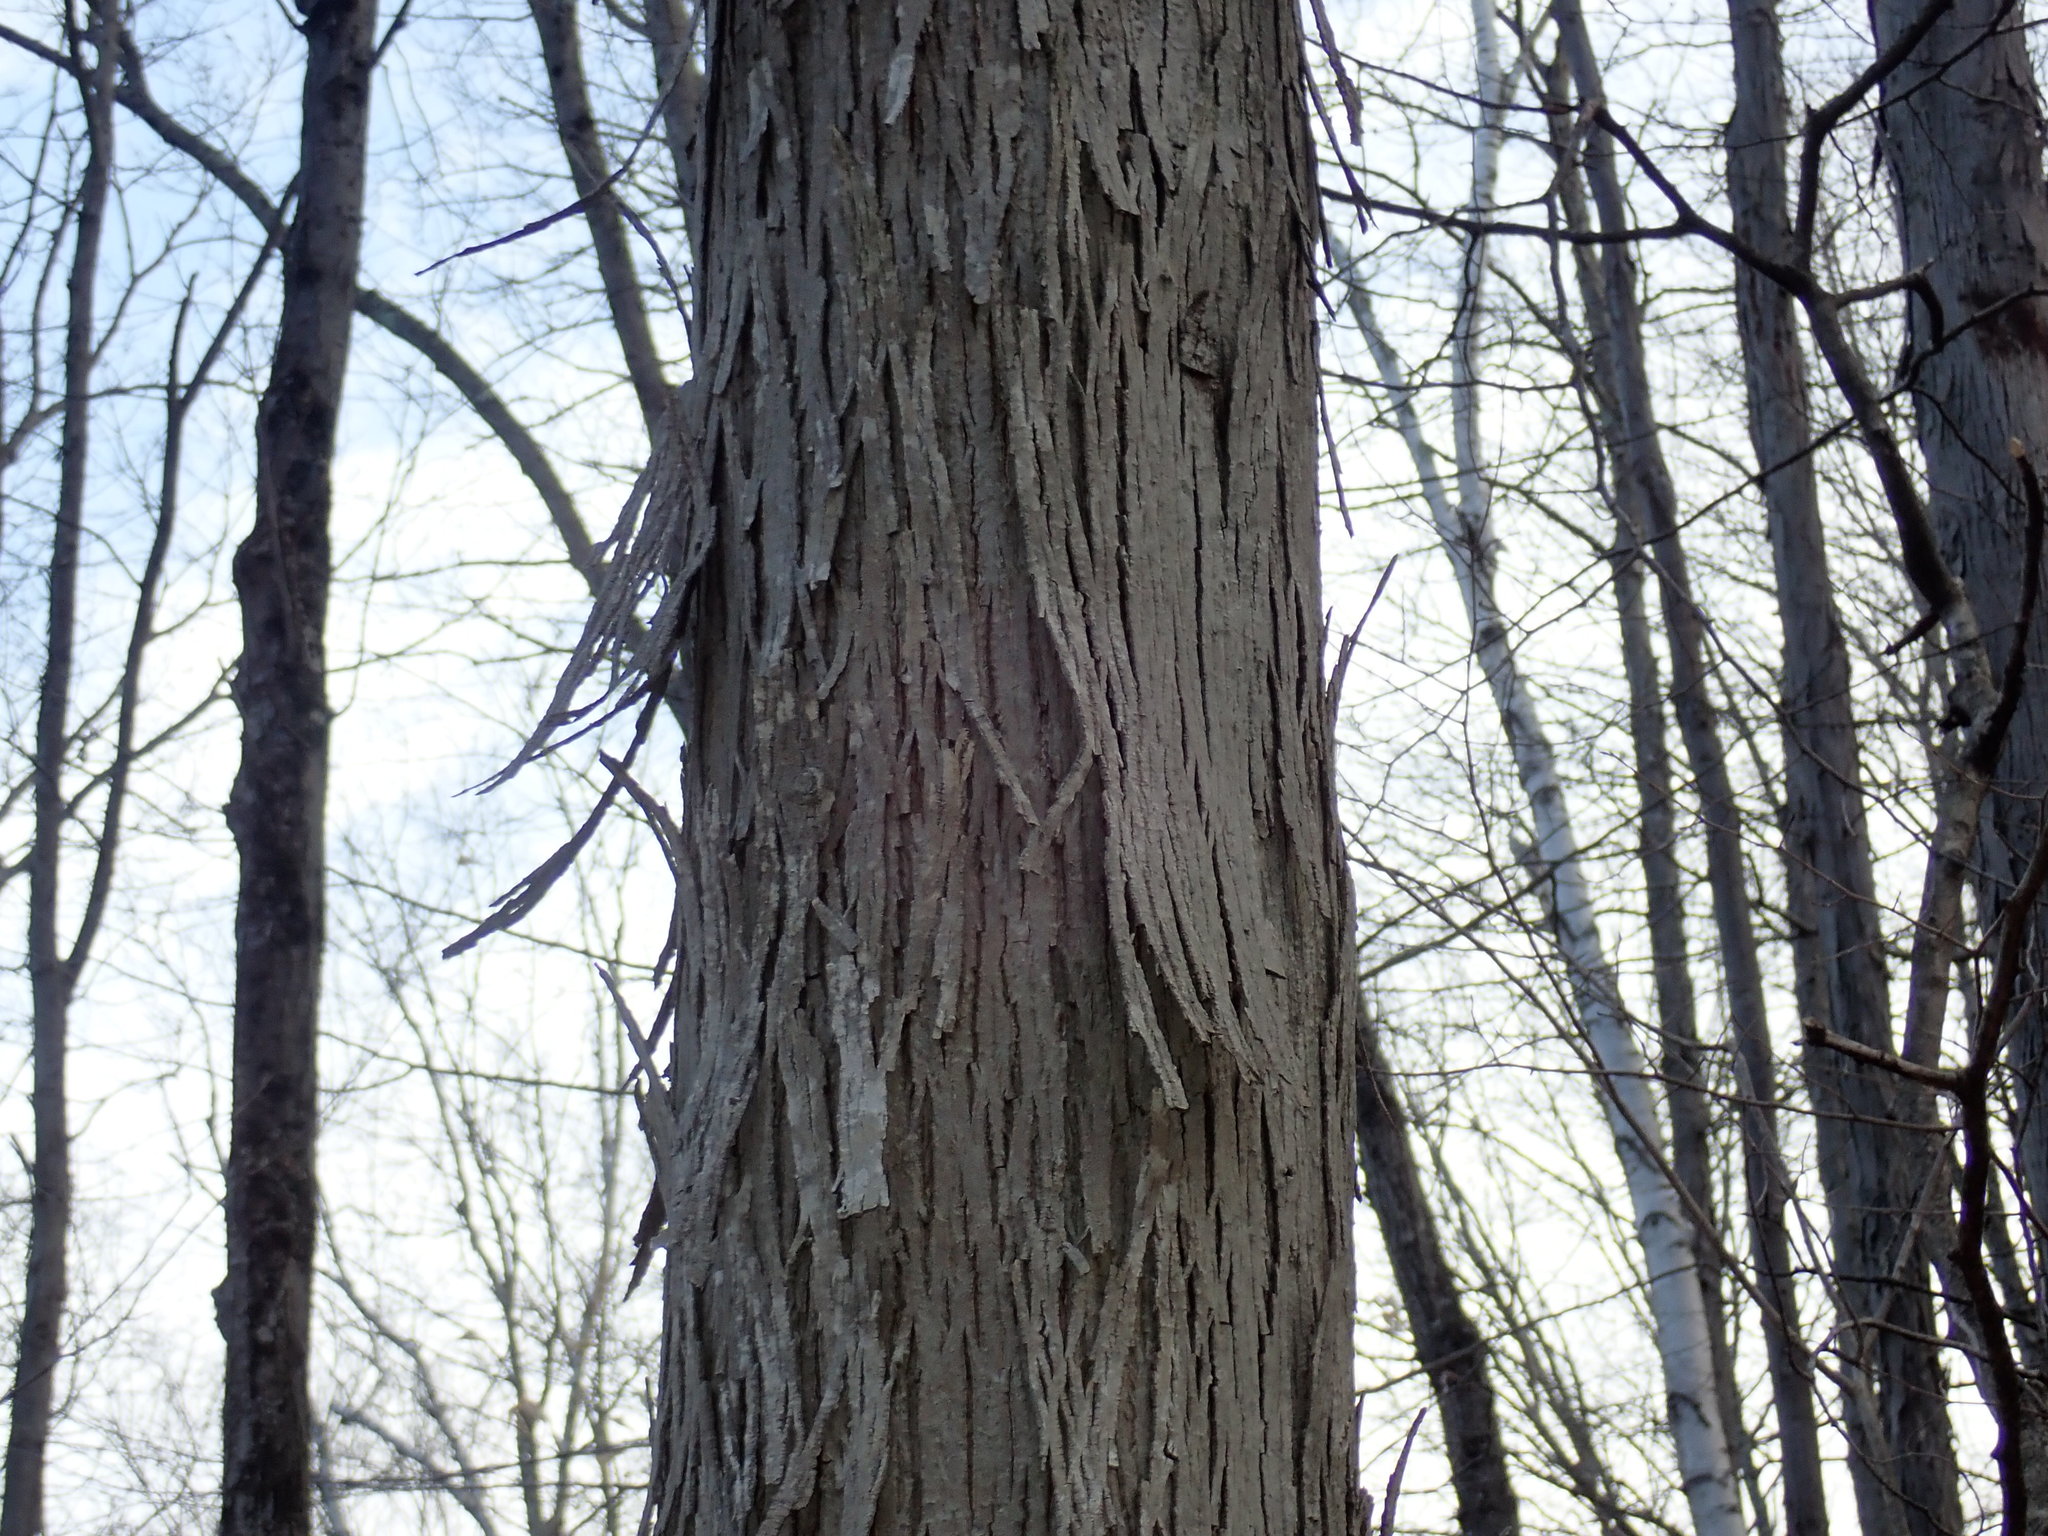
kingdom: Plantae
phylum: Tracheophyta
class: Magnoliopsida
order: Fagales
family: Juglandaceae
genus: Carya
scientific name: Carya ovata
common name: Shagbark hickory
